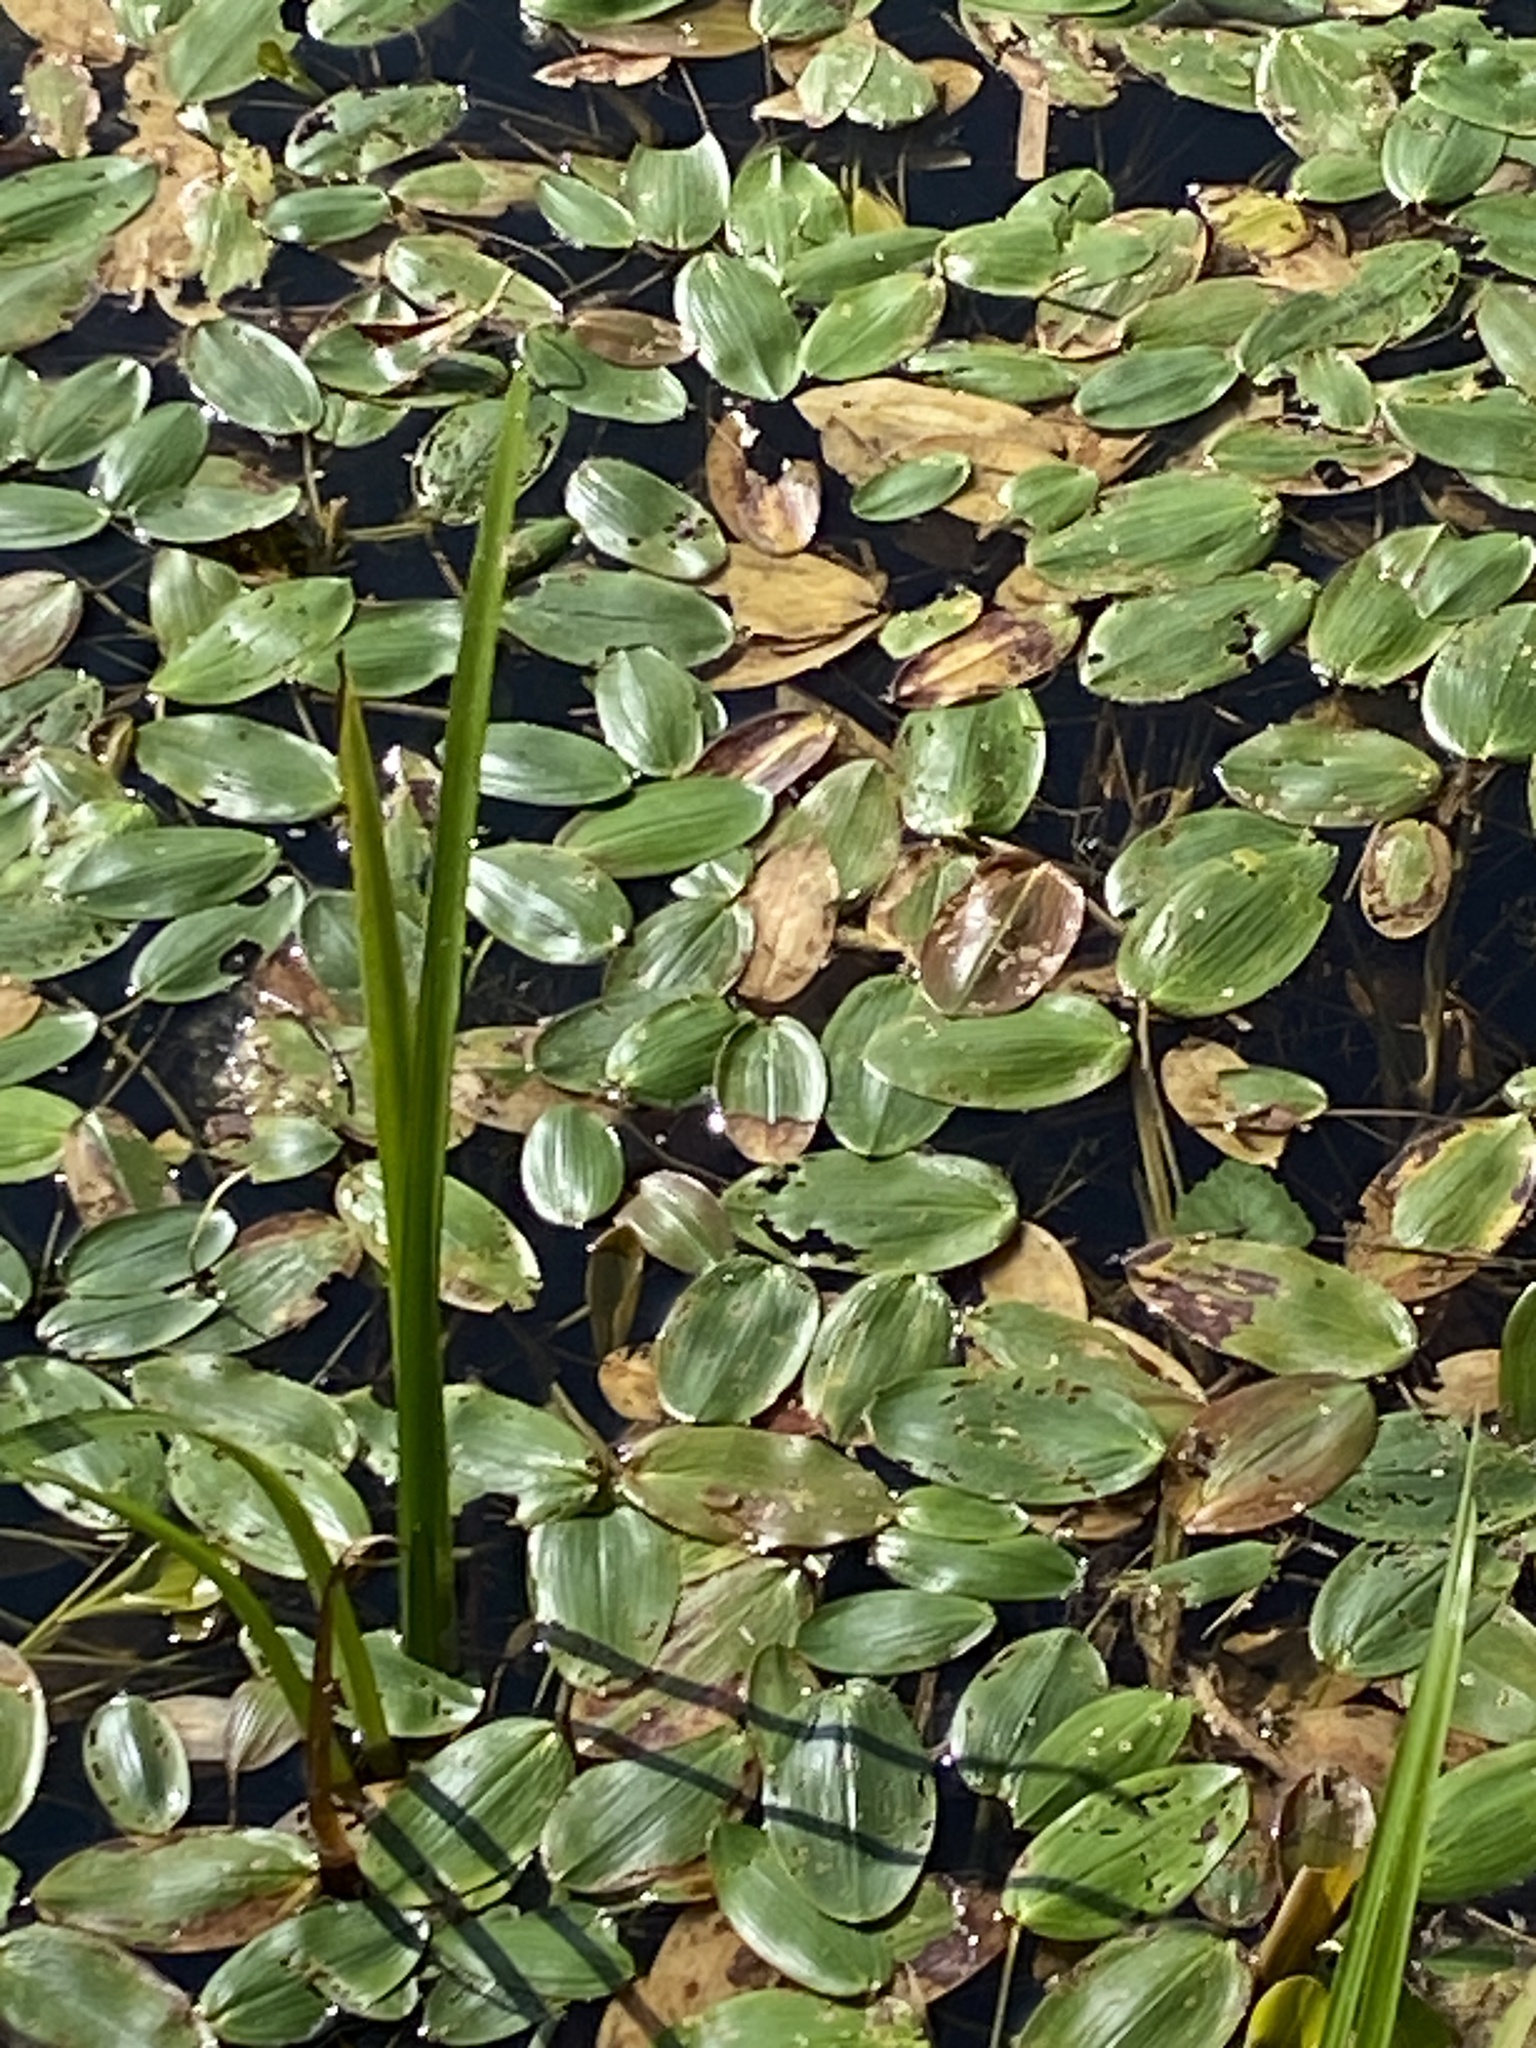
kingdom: Plantae
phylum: Tracheophyta
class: Liliopsida
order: Alismatales
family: Potamogetonaceae
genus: Potamogeton
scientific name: Potamogeton natans
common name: Broad-leaved pondweed
